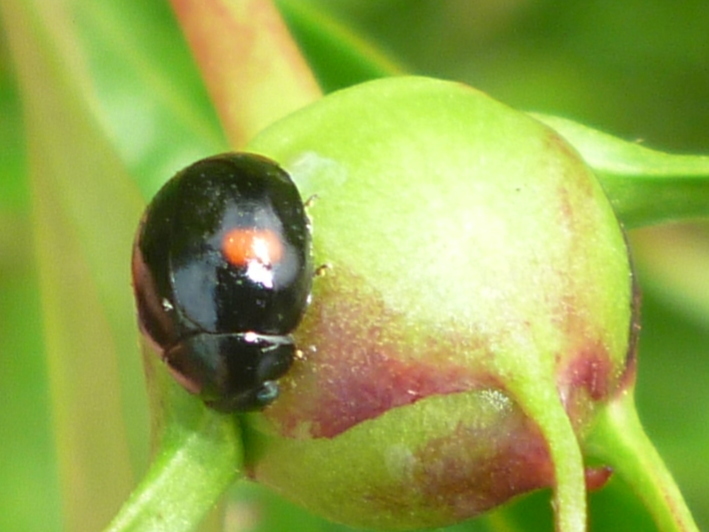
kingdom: Animalia
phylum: Arthropoda
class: Insecta
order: Coleoptera
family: Coccinellidae
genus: Hyperaspis
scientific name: Hyperaspis
